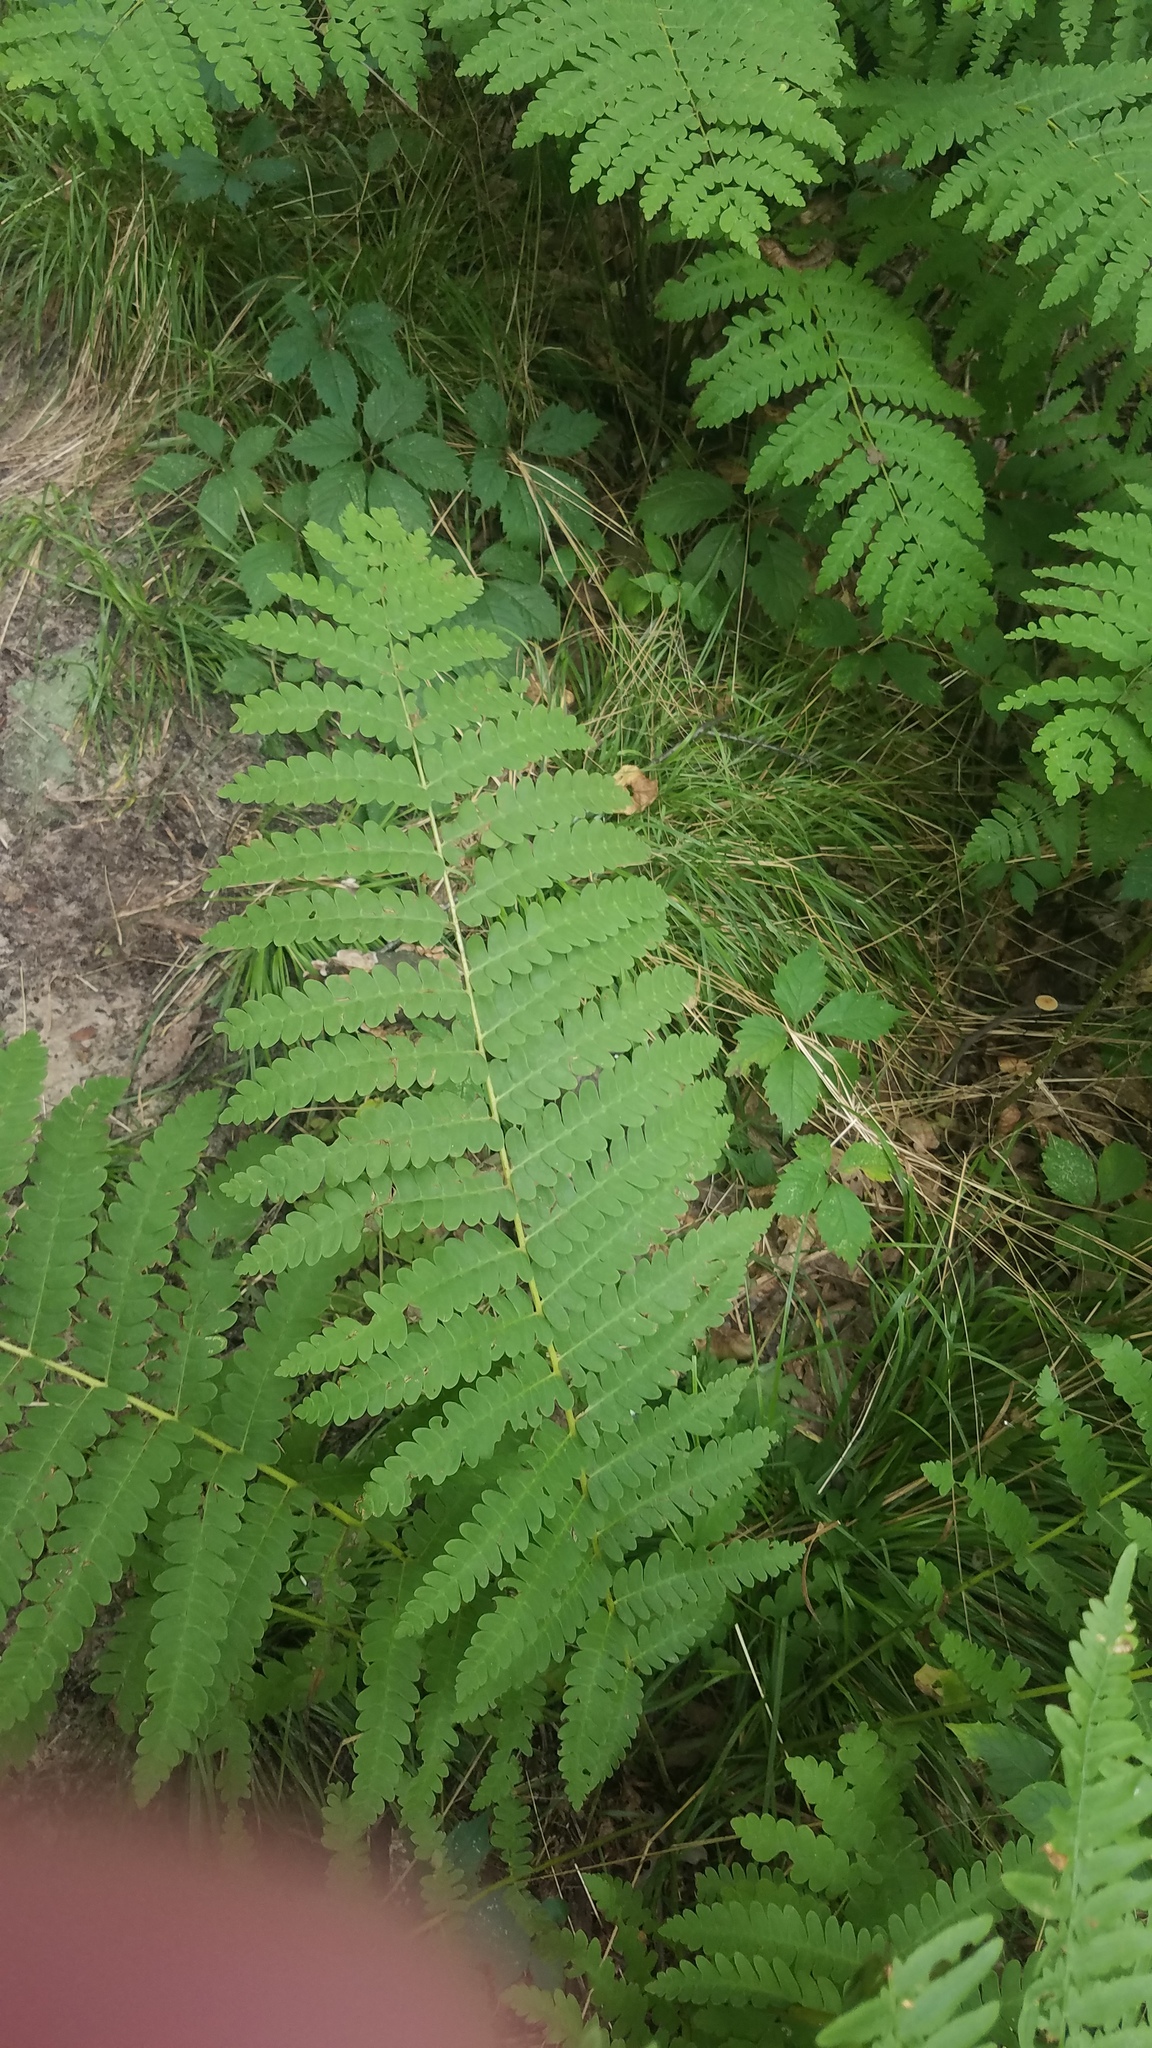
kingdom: Plantae
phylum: Tracheophyta
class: Polypodiopsida
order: Osmundales
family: Osmundaceae
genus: Claytosmunda
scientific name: Claytosmunda claytoniana
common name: Clayton's fern
